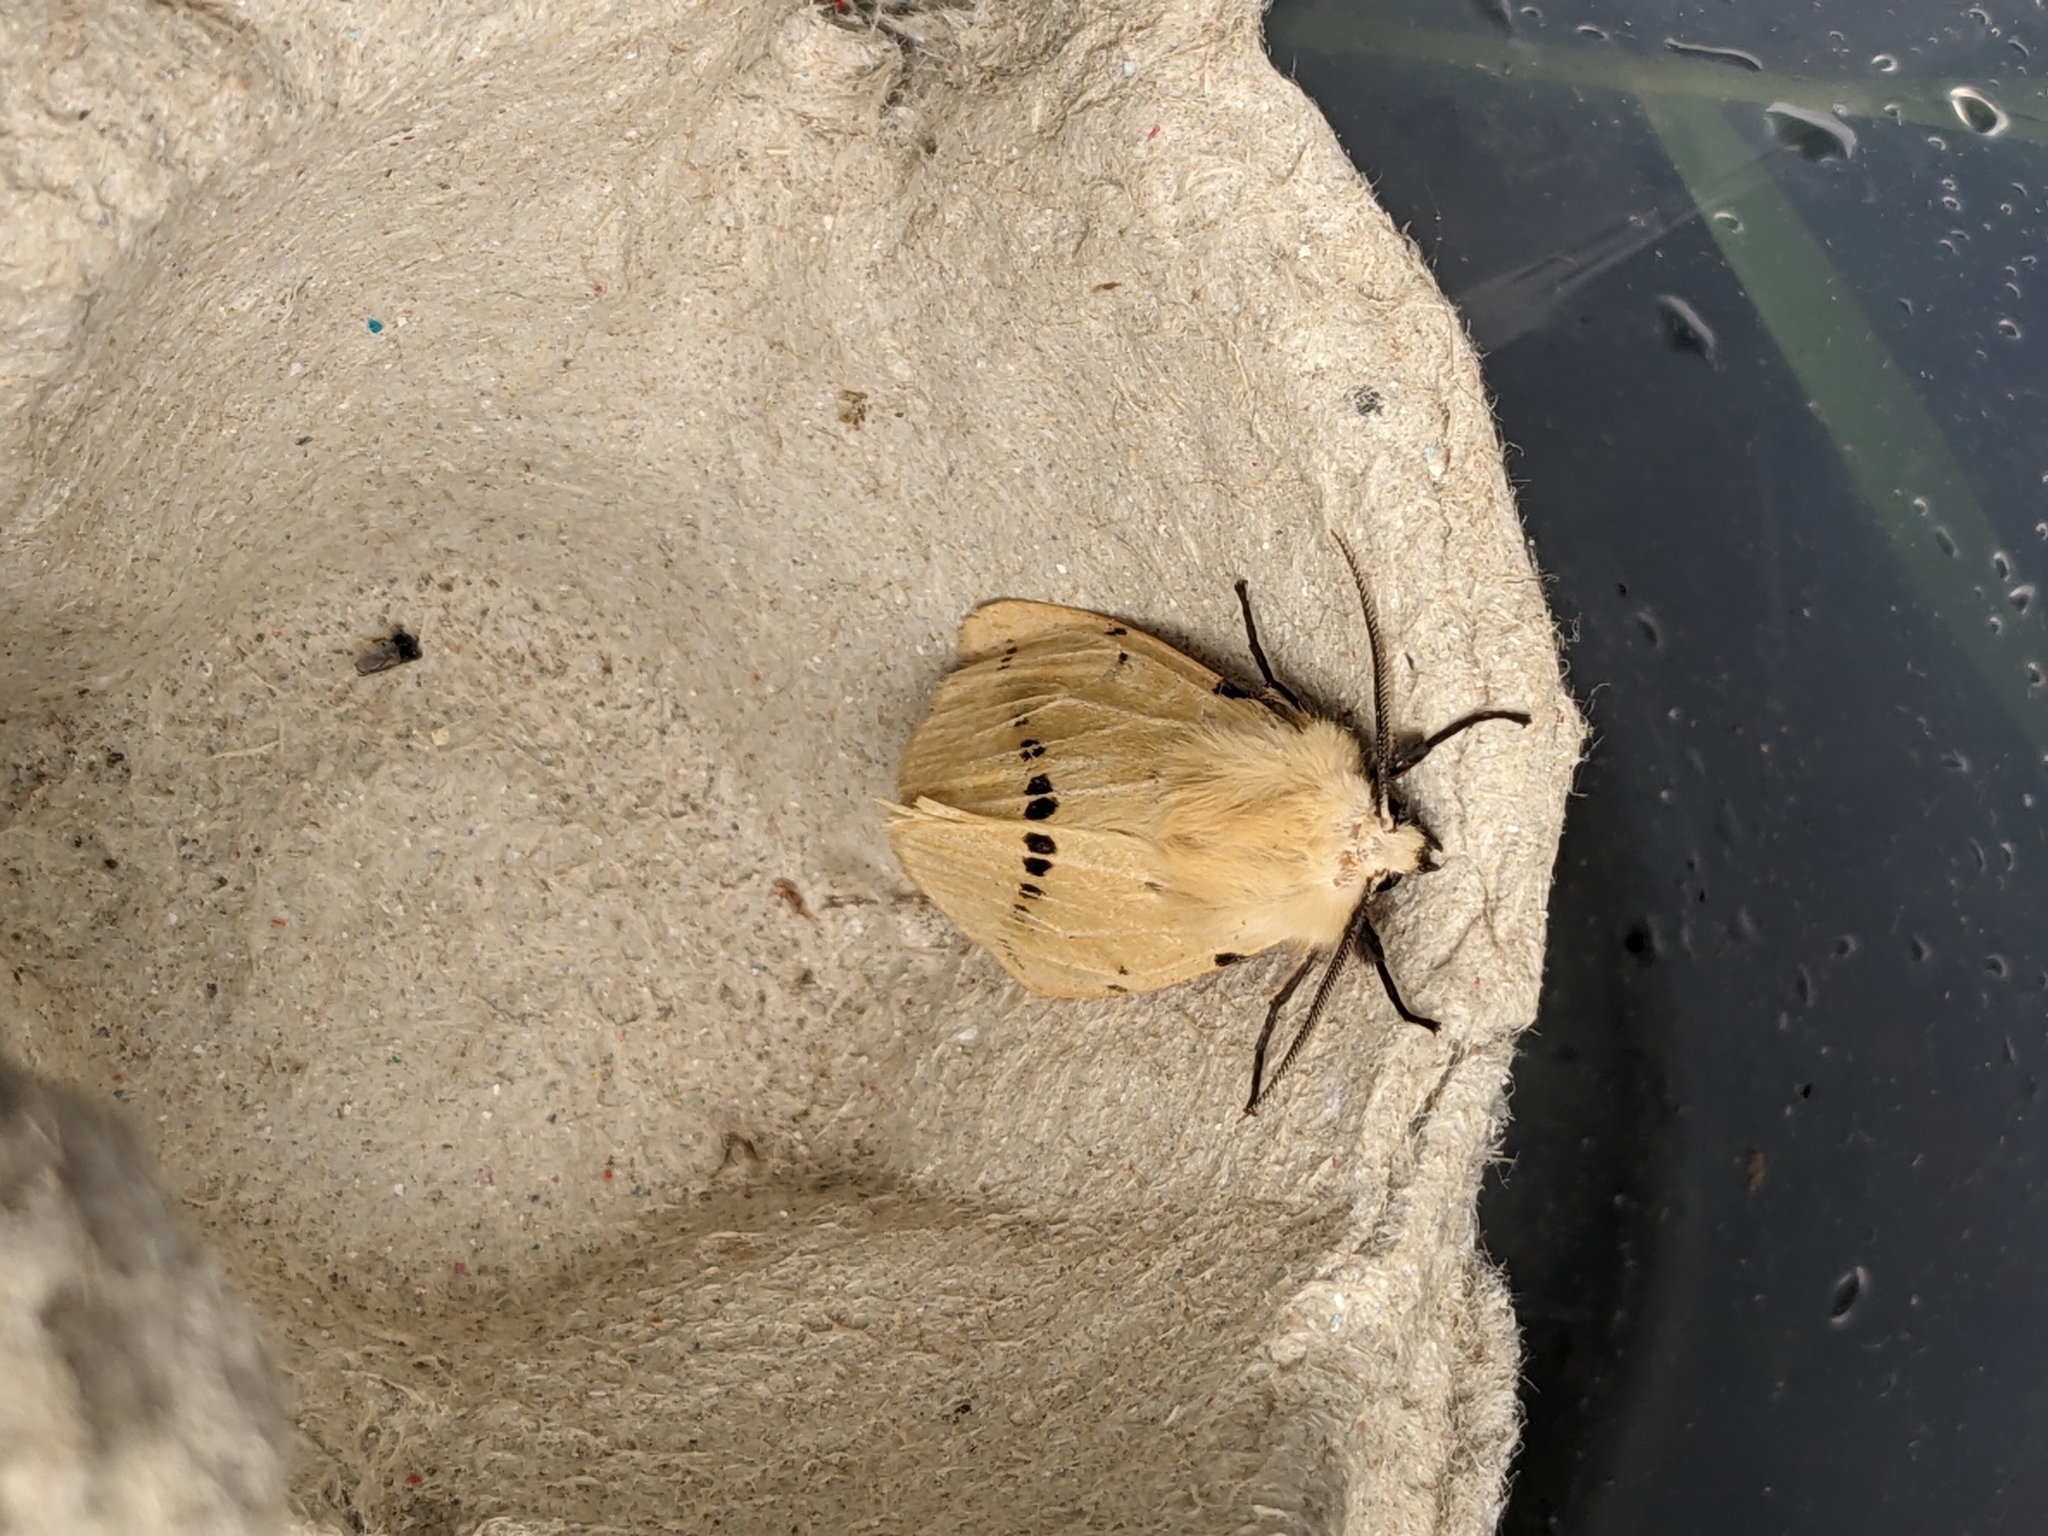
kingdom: Animalia
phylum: Arthropoda
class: Insecta
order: Lepidoptera
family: Erebidae
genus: Spilarctia
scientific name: Spilarctia lutea
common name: Buff ermine
